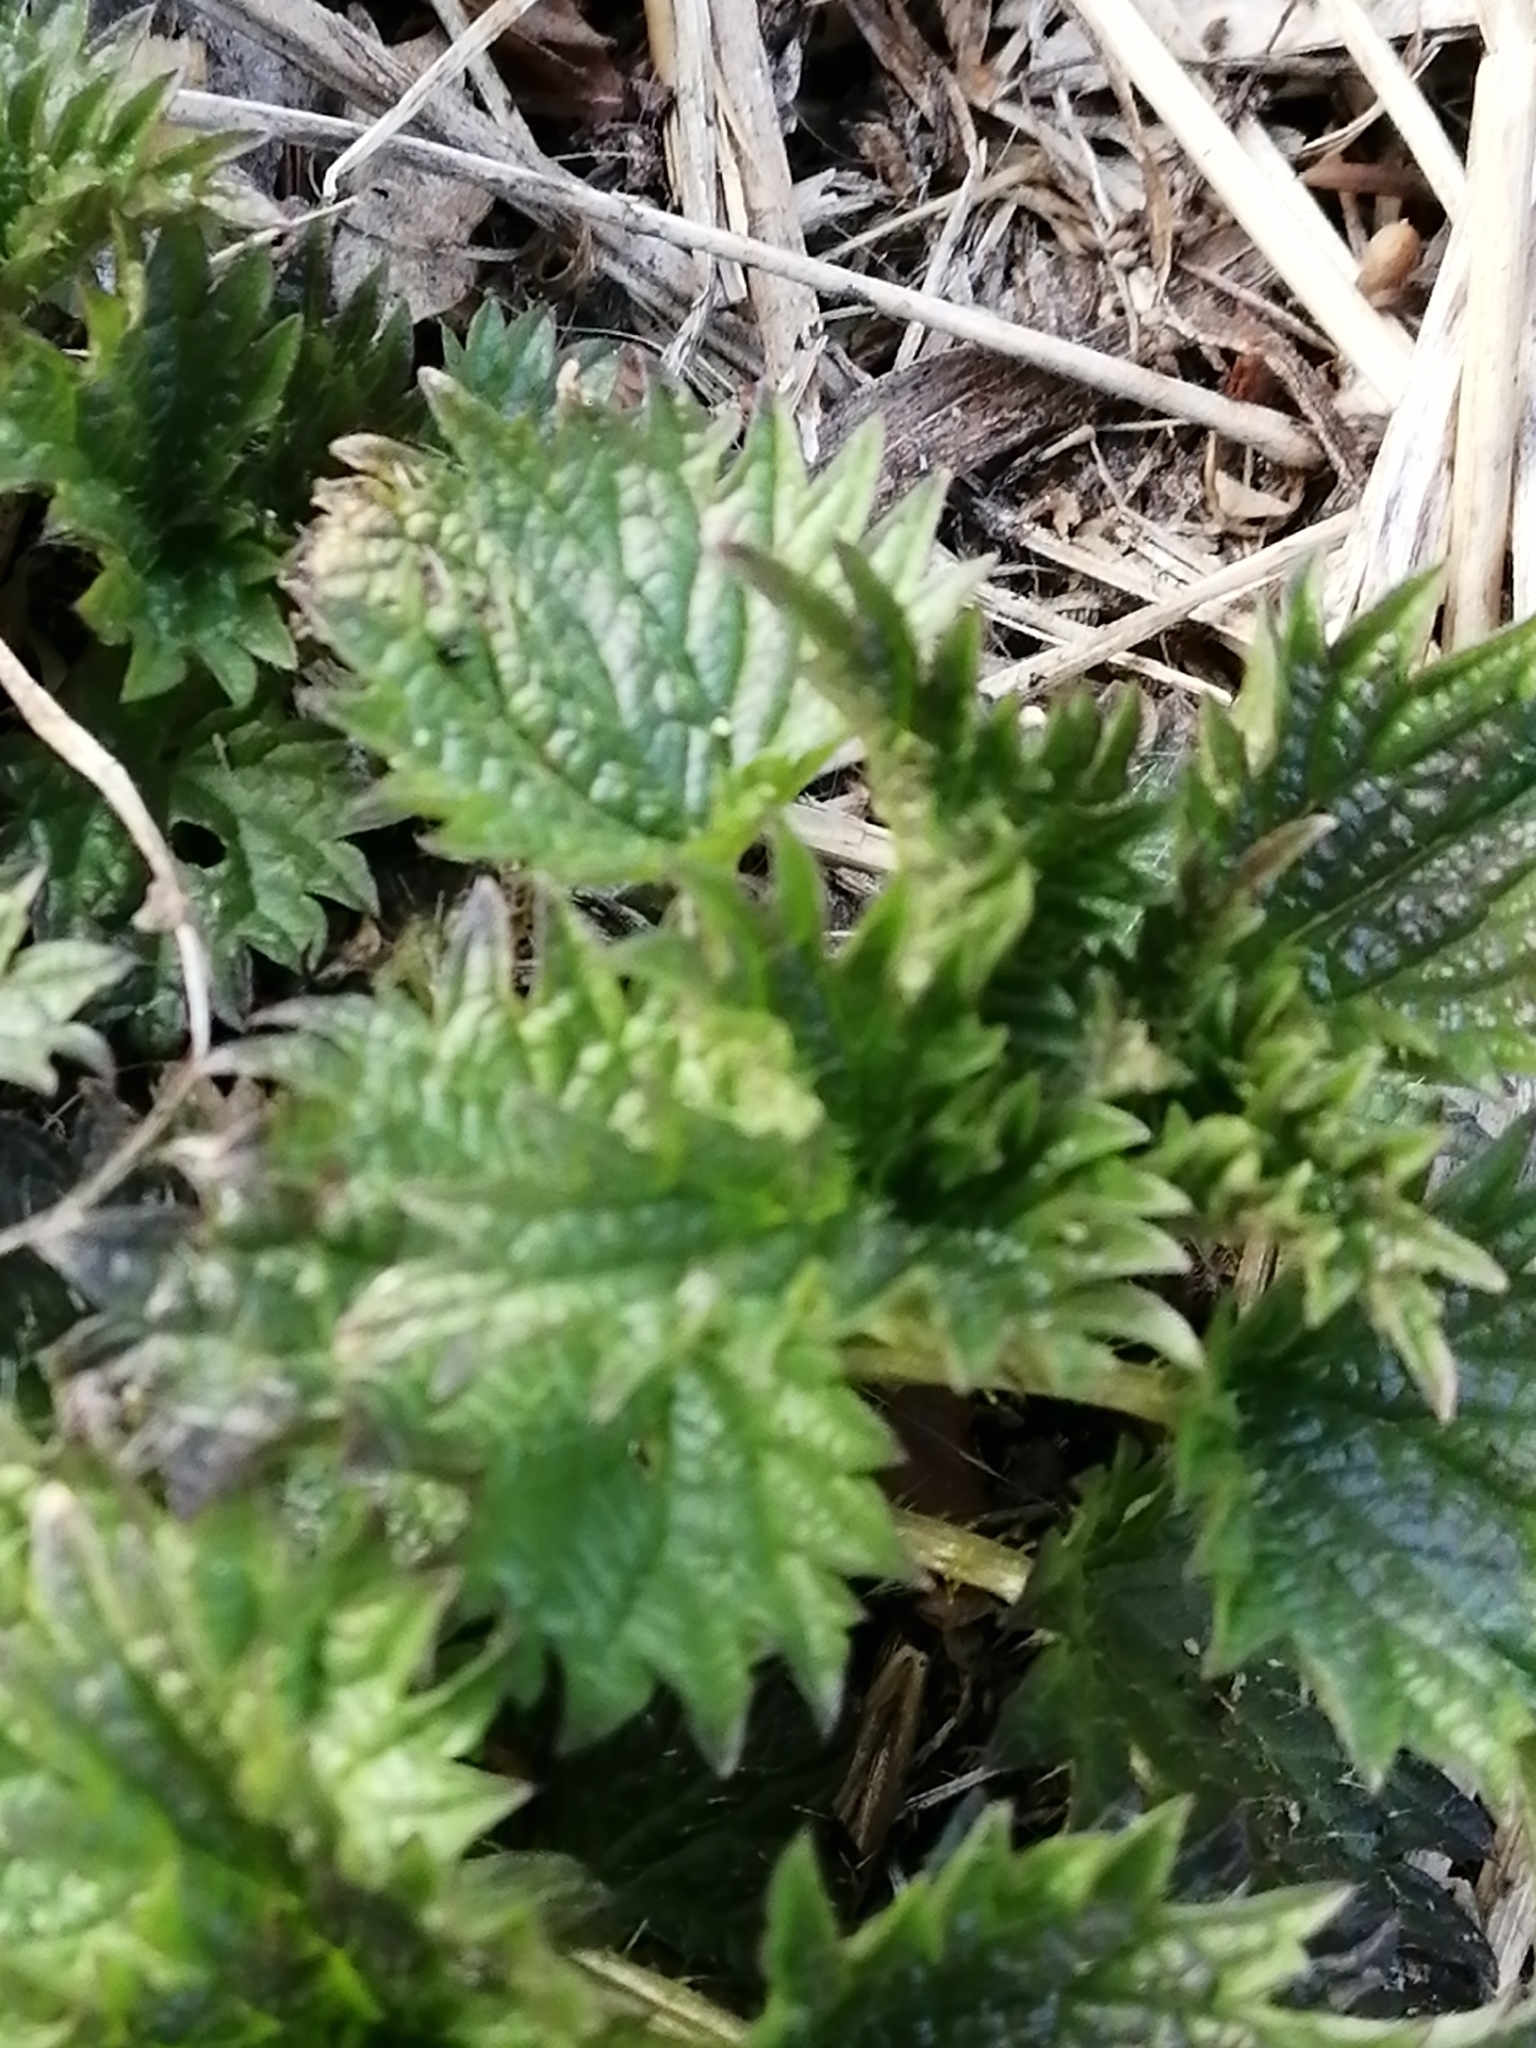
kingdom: Plantae
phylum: Tracheophyta
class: Magnoliopsida
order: Rosales
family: Urticaceae
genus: Urtica
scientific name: Urtica dioica
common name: Common nettle
